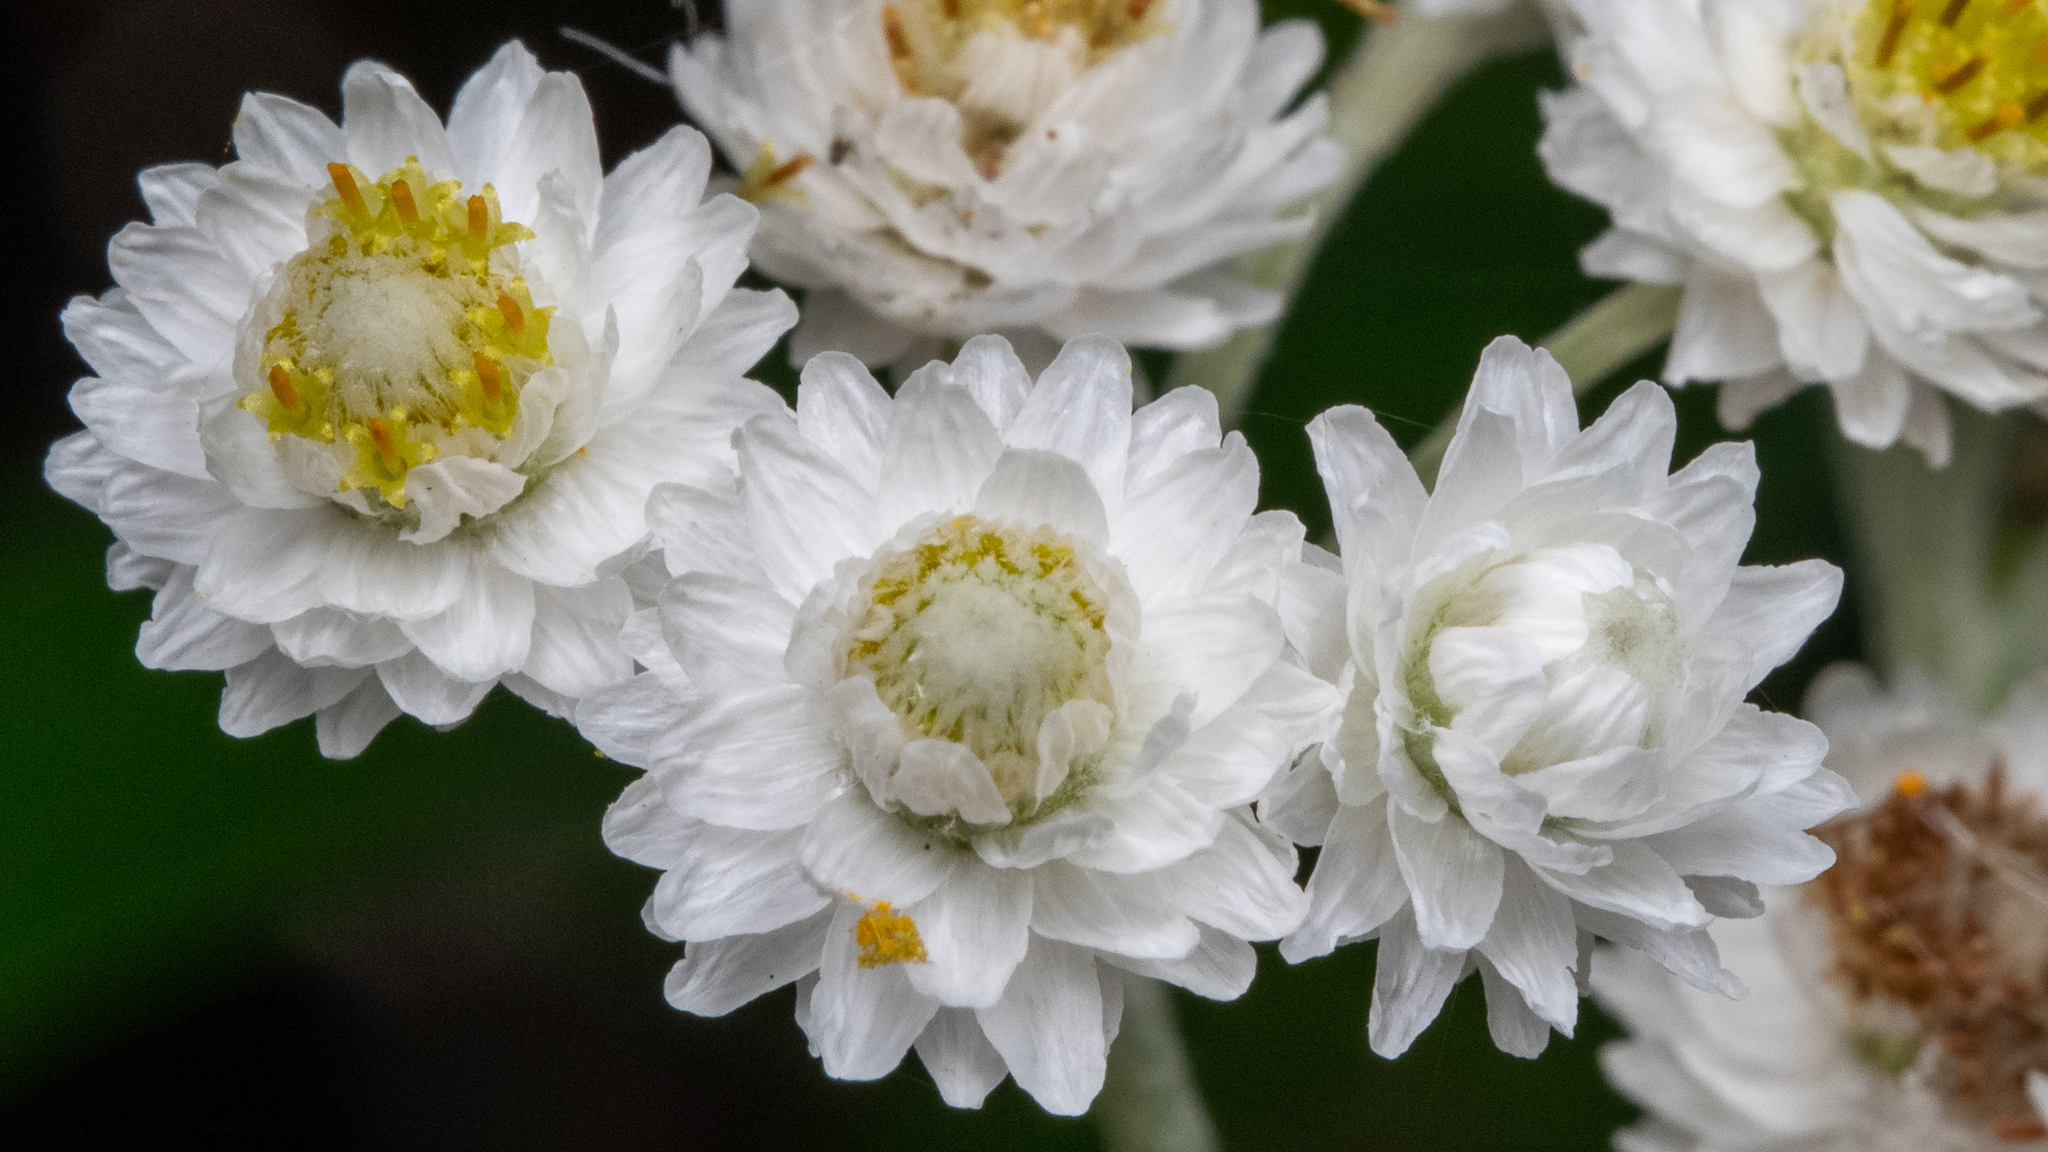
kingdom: Plantae
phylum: Tracheophyta
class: Magnoliopsida
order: Asterales
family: Asteraceae
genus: Anaphalis
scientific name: Anaphalis margaritacea
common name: Pearly everlasting
